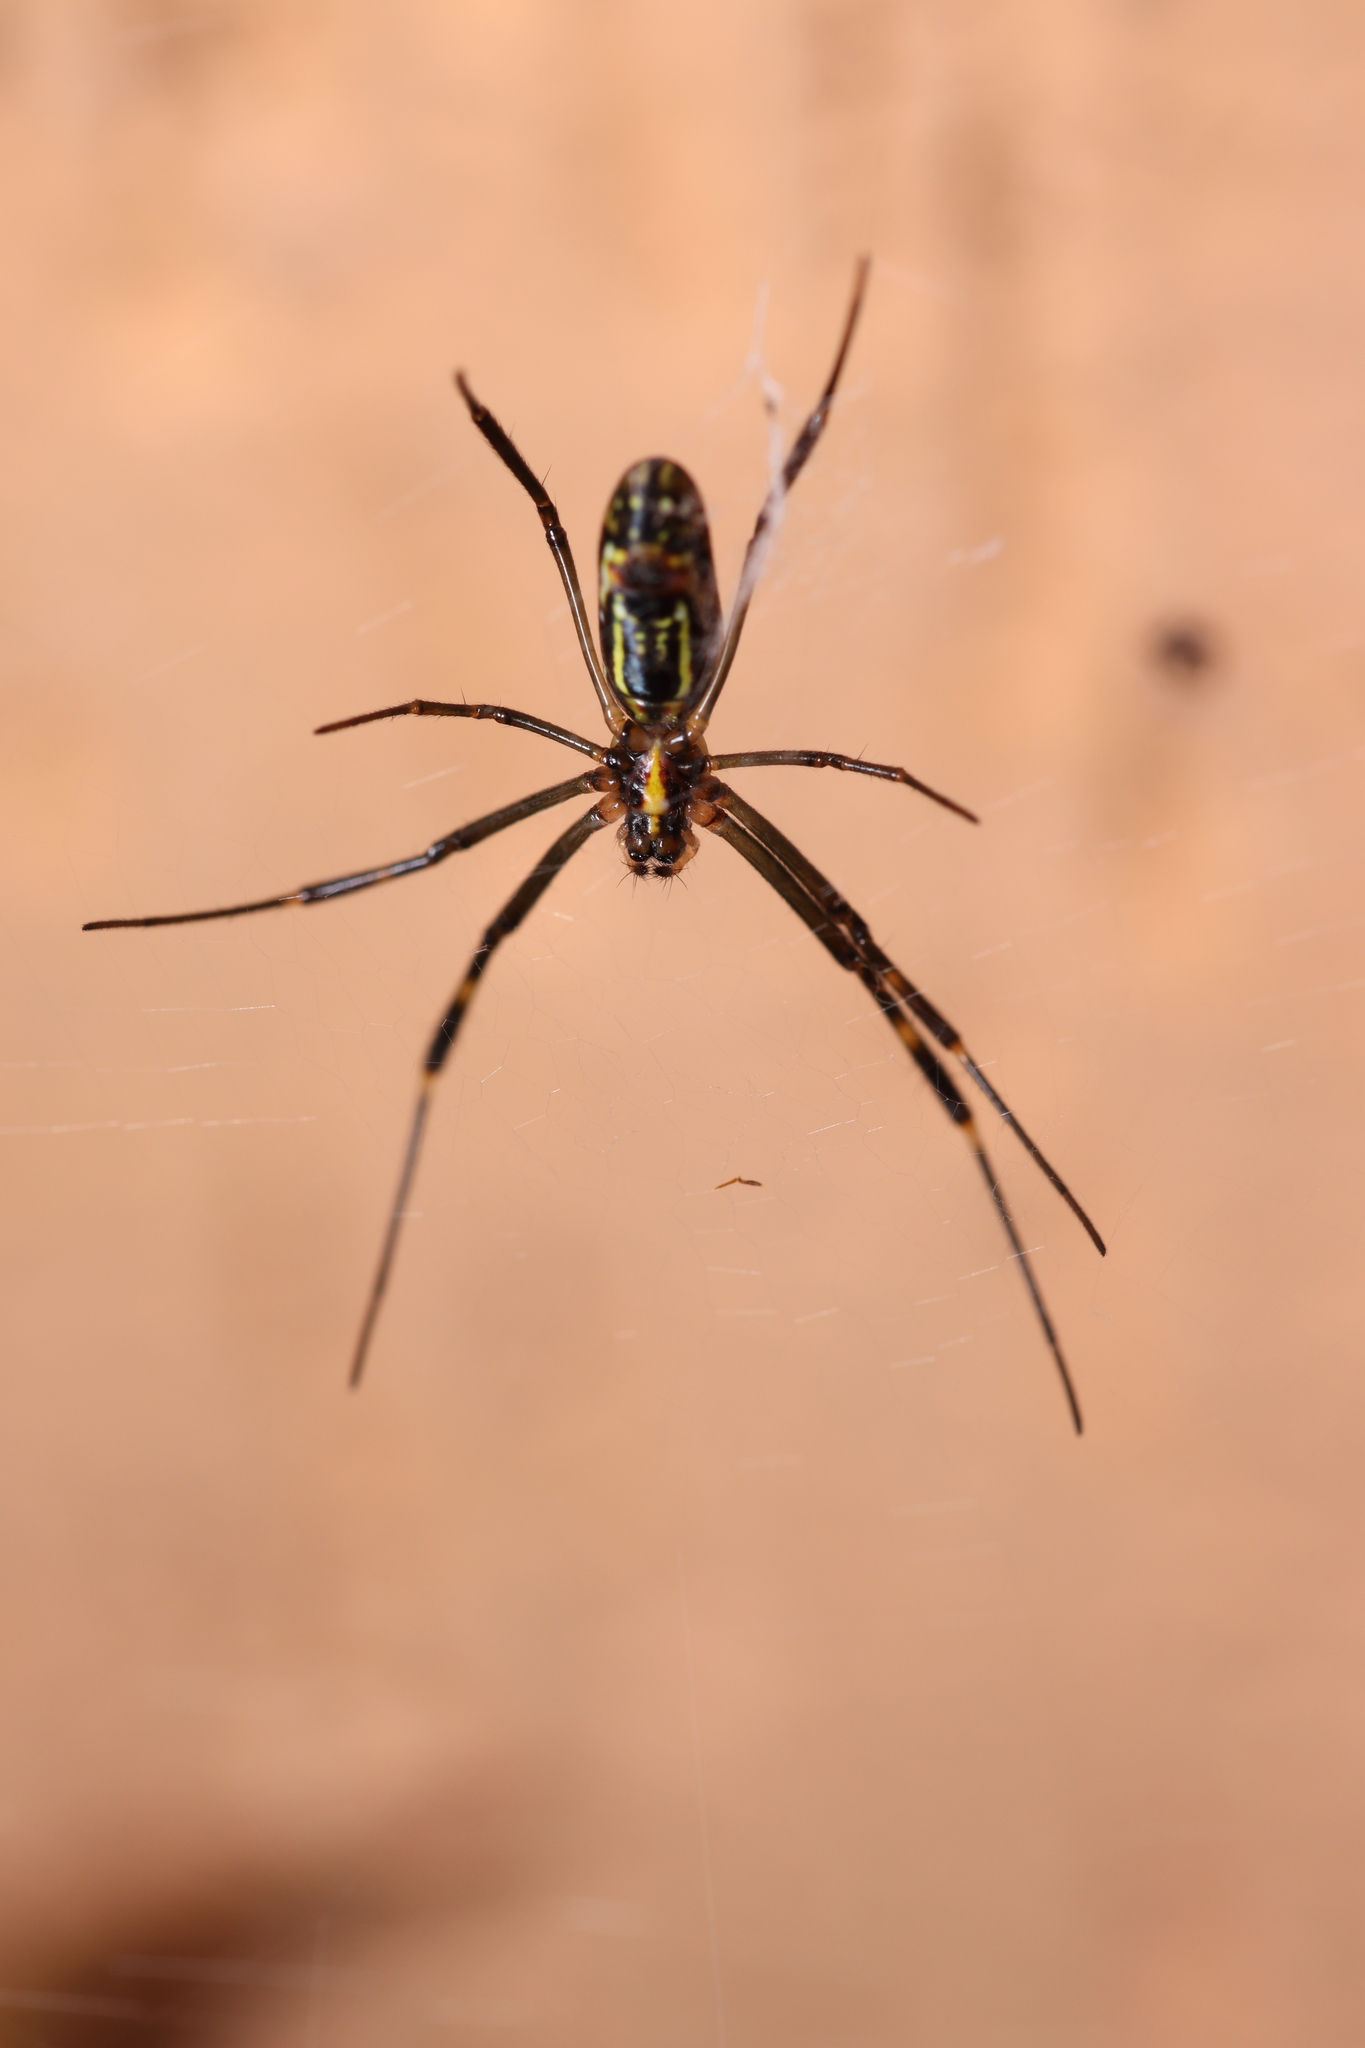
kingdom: Animalia
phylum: Arthropoda
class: Arachnida
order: Araneae
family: Araneidae
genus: Trichonephila
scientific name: Trichonephila clavipes
